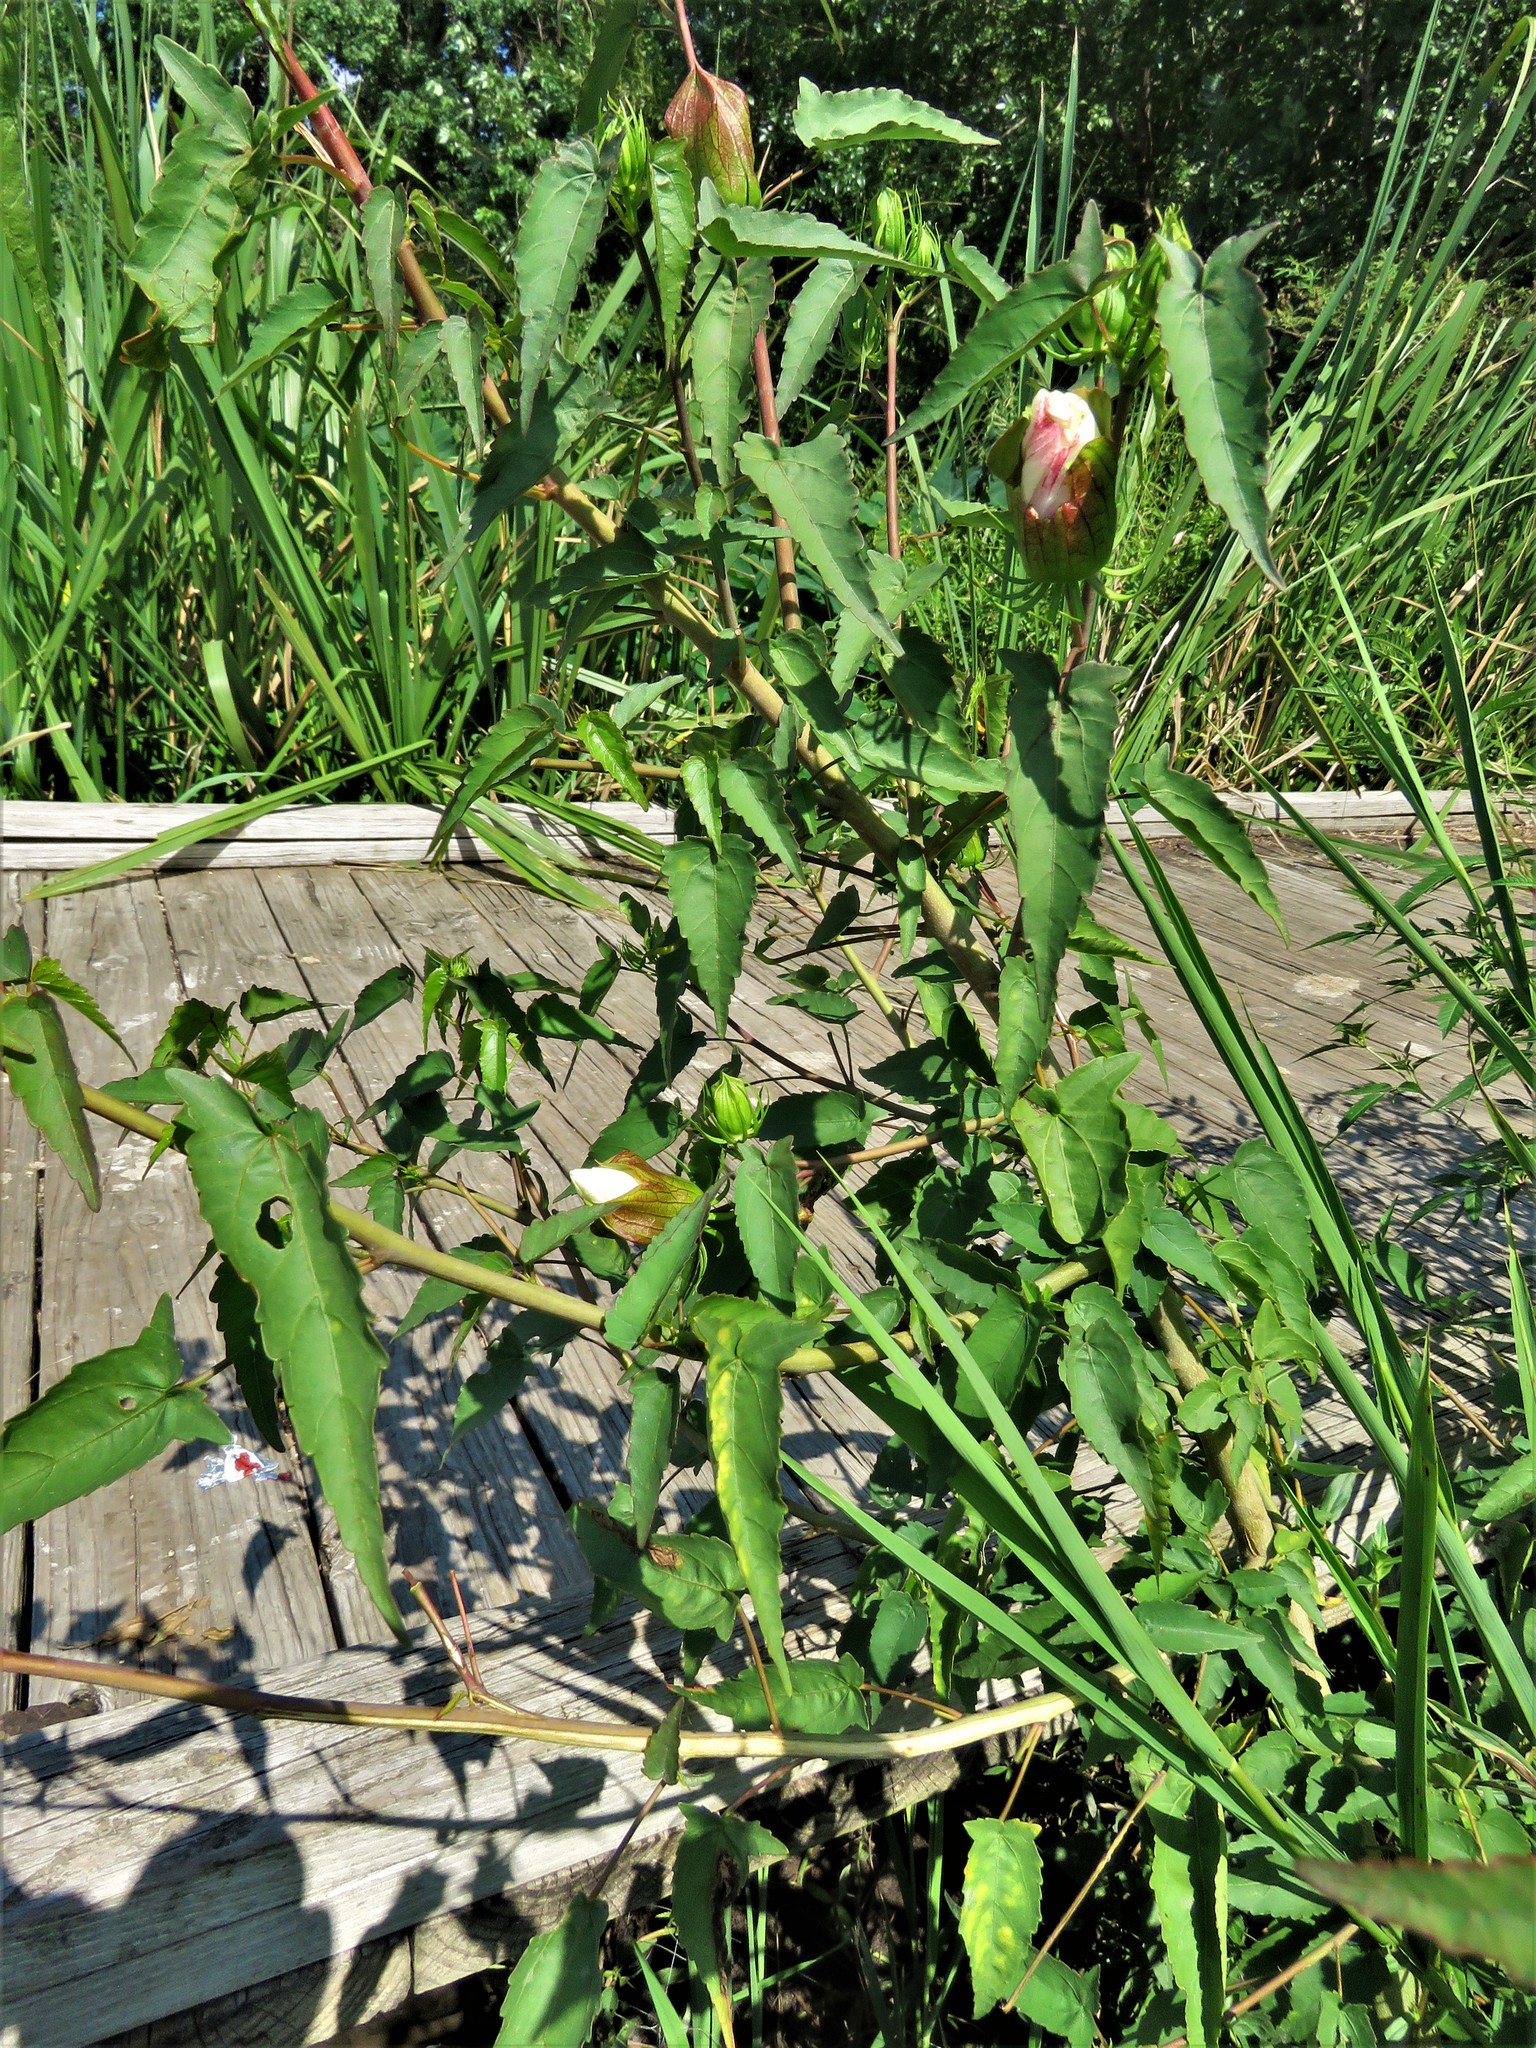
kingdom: Plantae
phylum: Tracheophyta
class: Magnoliopsida
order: Malvales
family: Malvaceae
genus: Hibiscus
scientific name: Hibiscus laevis
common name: Scarlet rose-mallow
